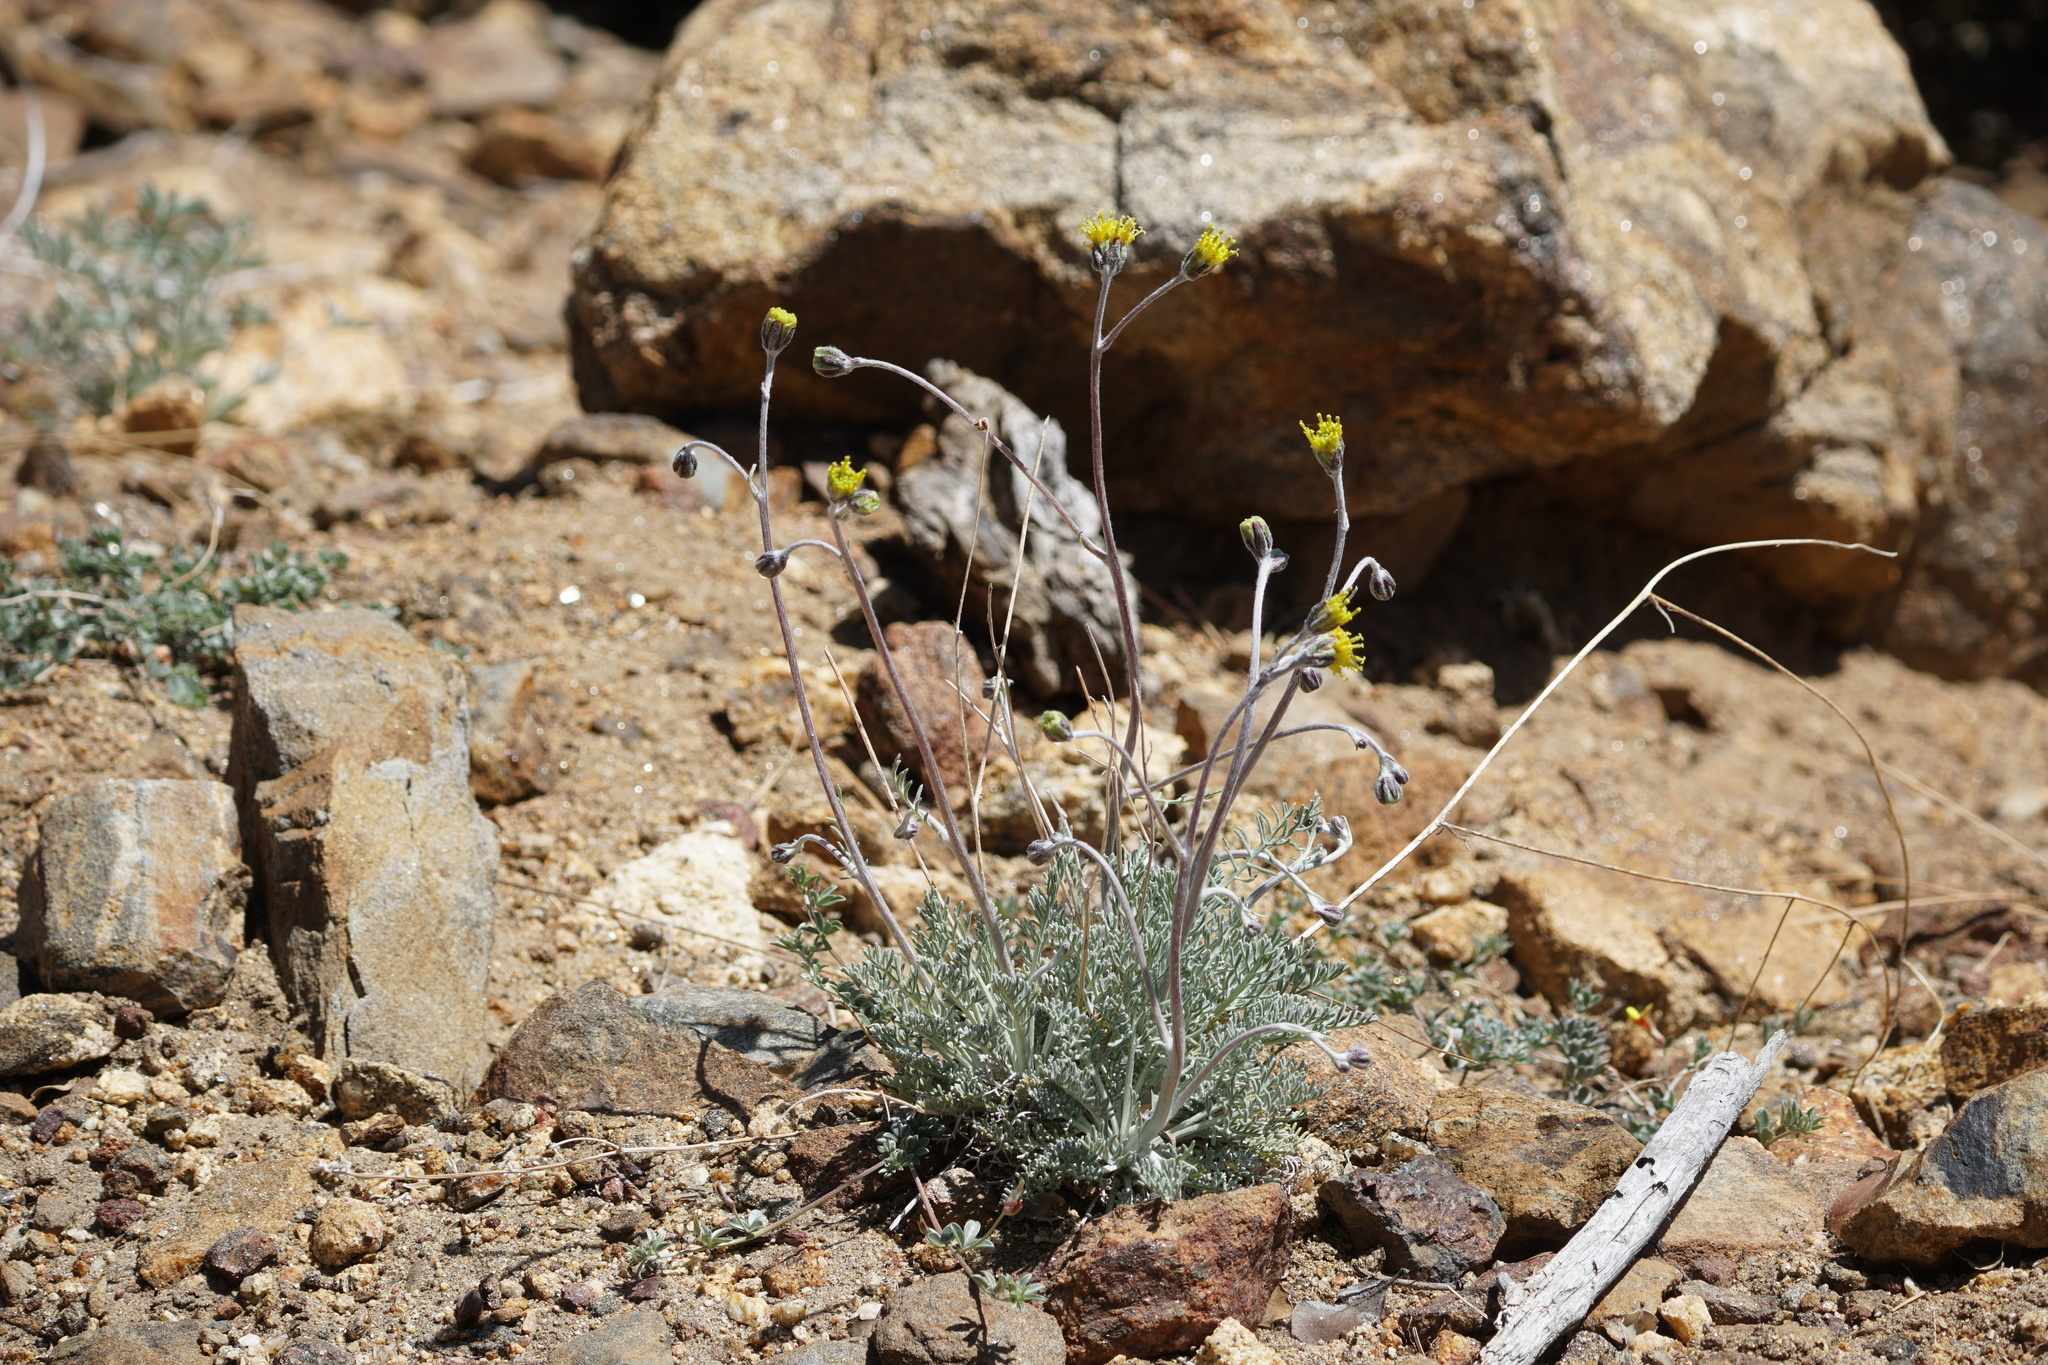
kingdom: Plantae
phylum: Tracheophyta
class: Magnoliopsida
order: Asterales
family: Asteraceae
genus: Hymenopappus
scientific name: Hymenopappus filifolius
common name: Columbia cutleaf
